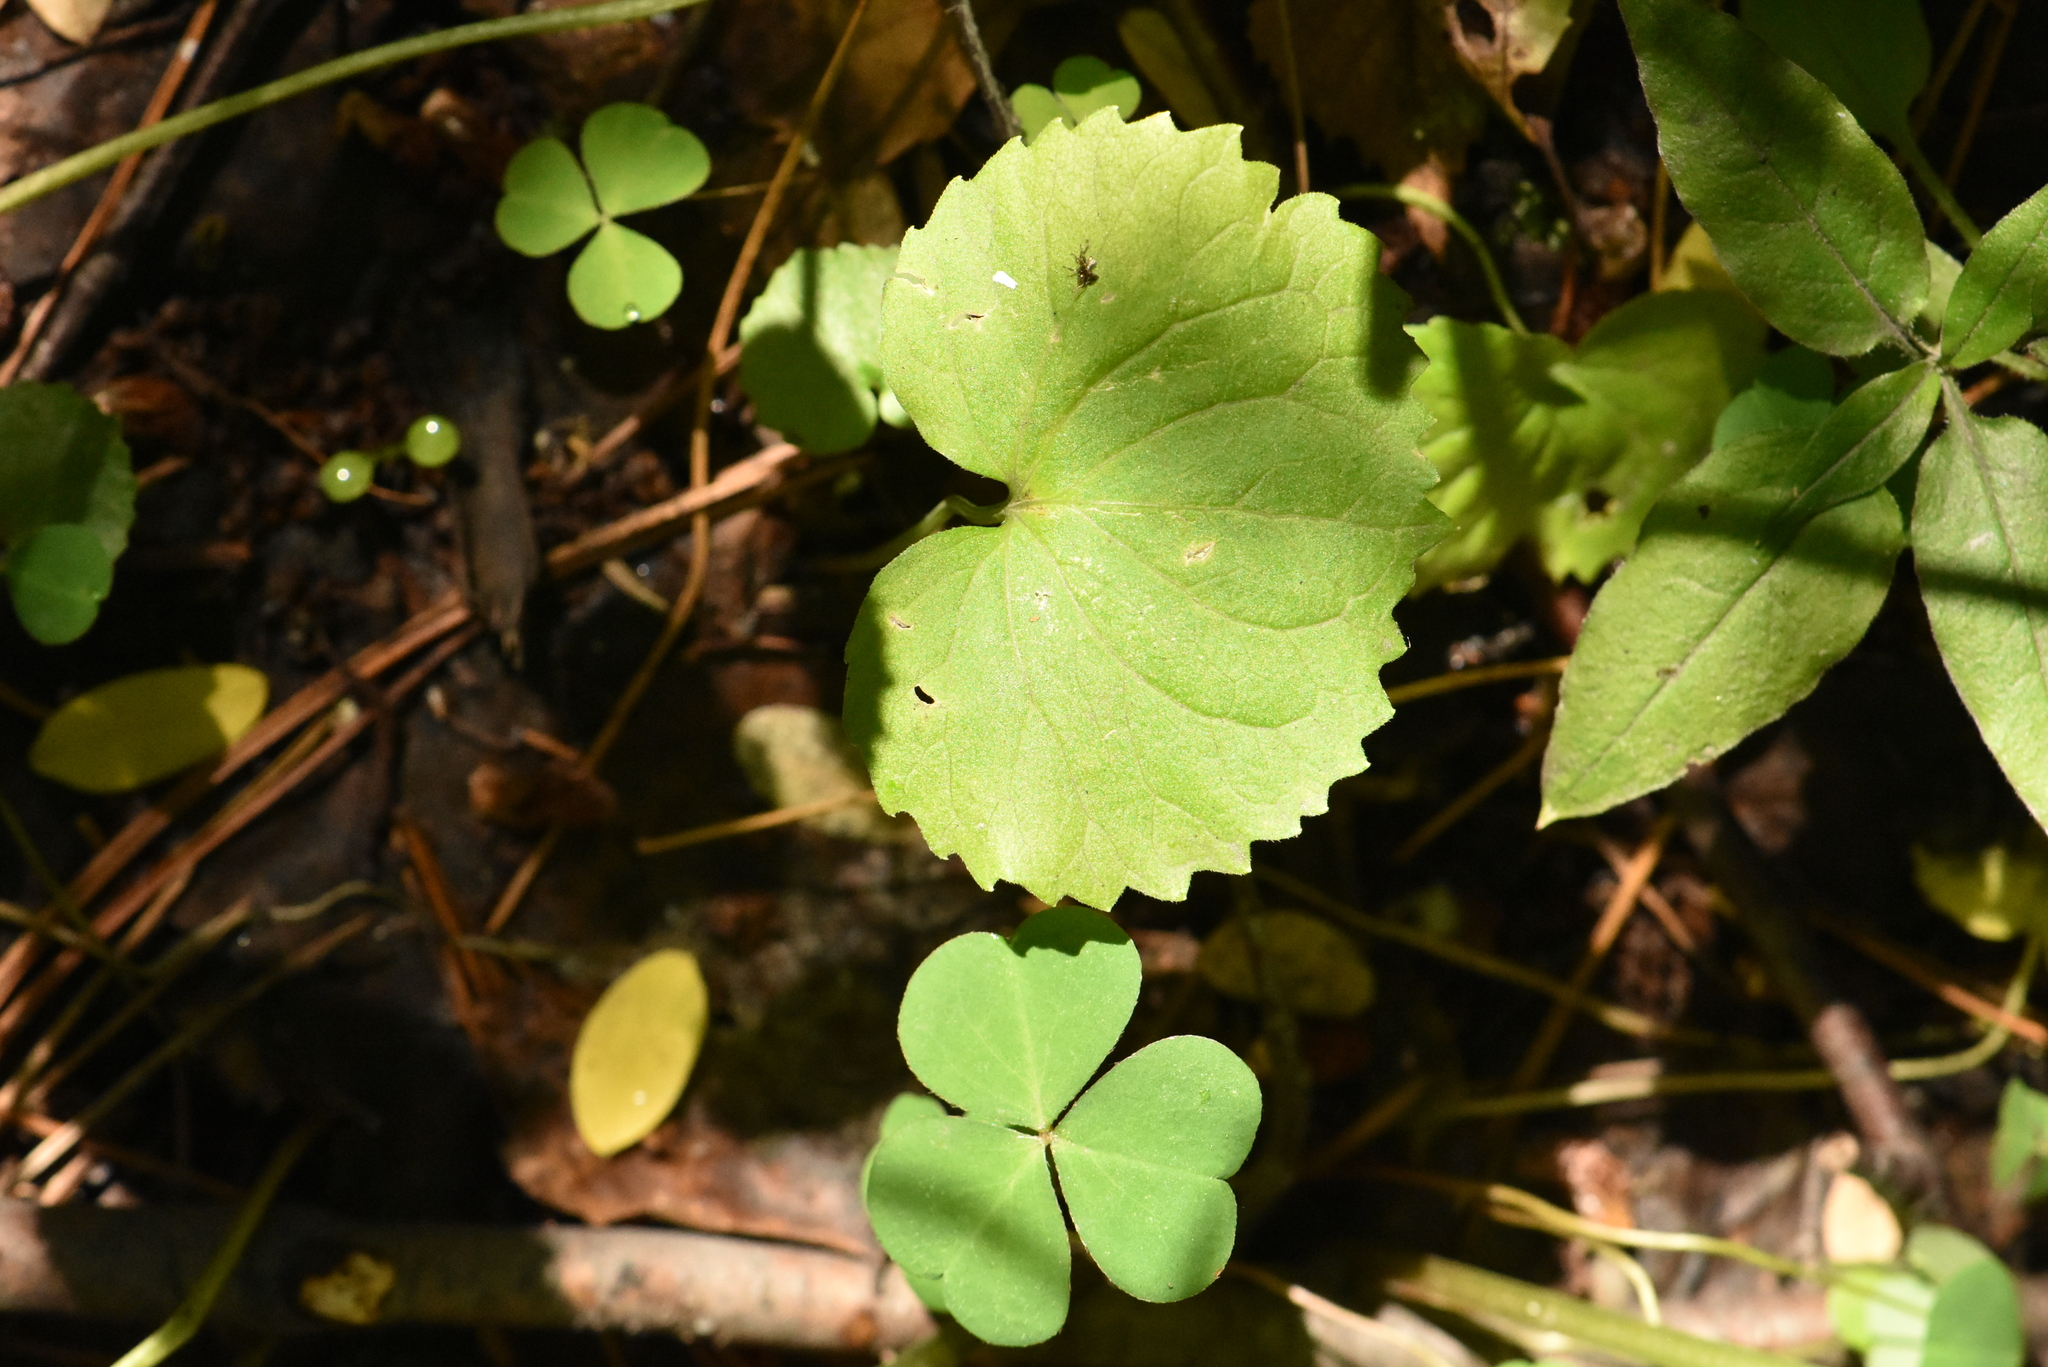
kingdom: Plantae
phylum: Tracheophyta
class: Magnoliopsida
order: Malpighiales
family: Violaceae
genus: Viola
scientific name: Viola uniflora
